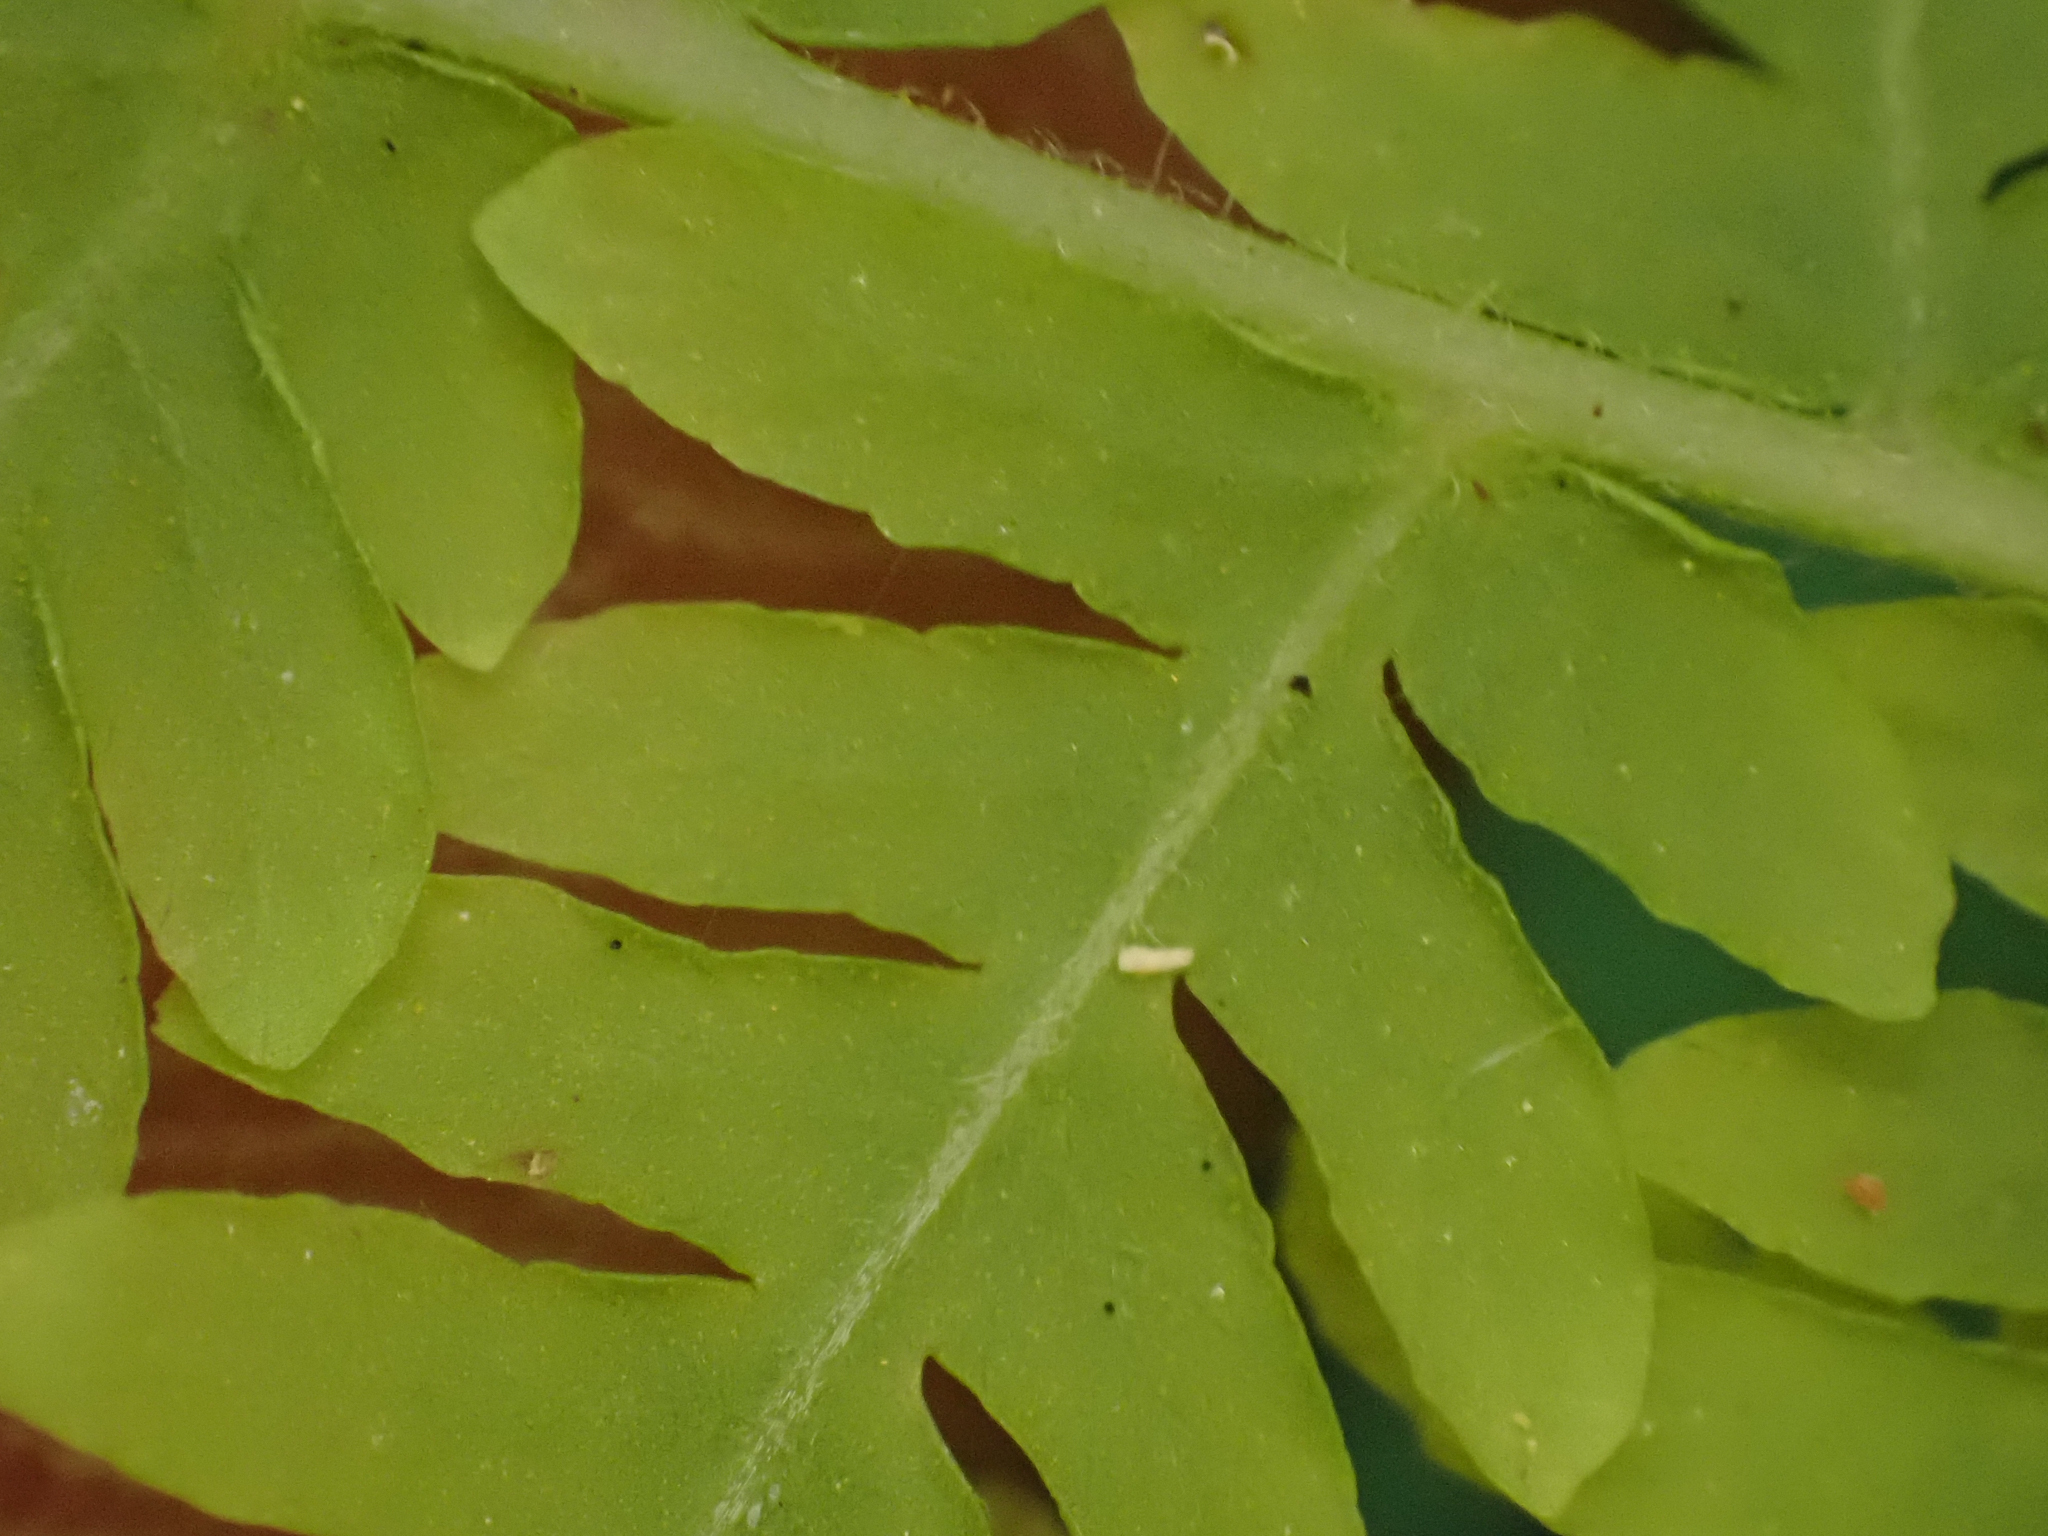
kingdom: Plantae
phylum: Tracheophyta
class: Polypodiopsida
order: Polypodiales
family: Thelypteridaceae
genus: Amauropelta
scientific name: Amauropelta nevadensis
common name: Nevada marsh fern
